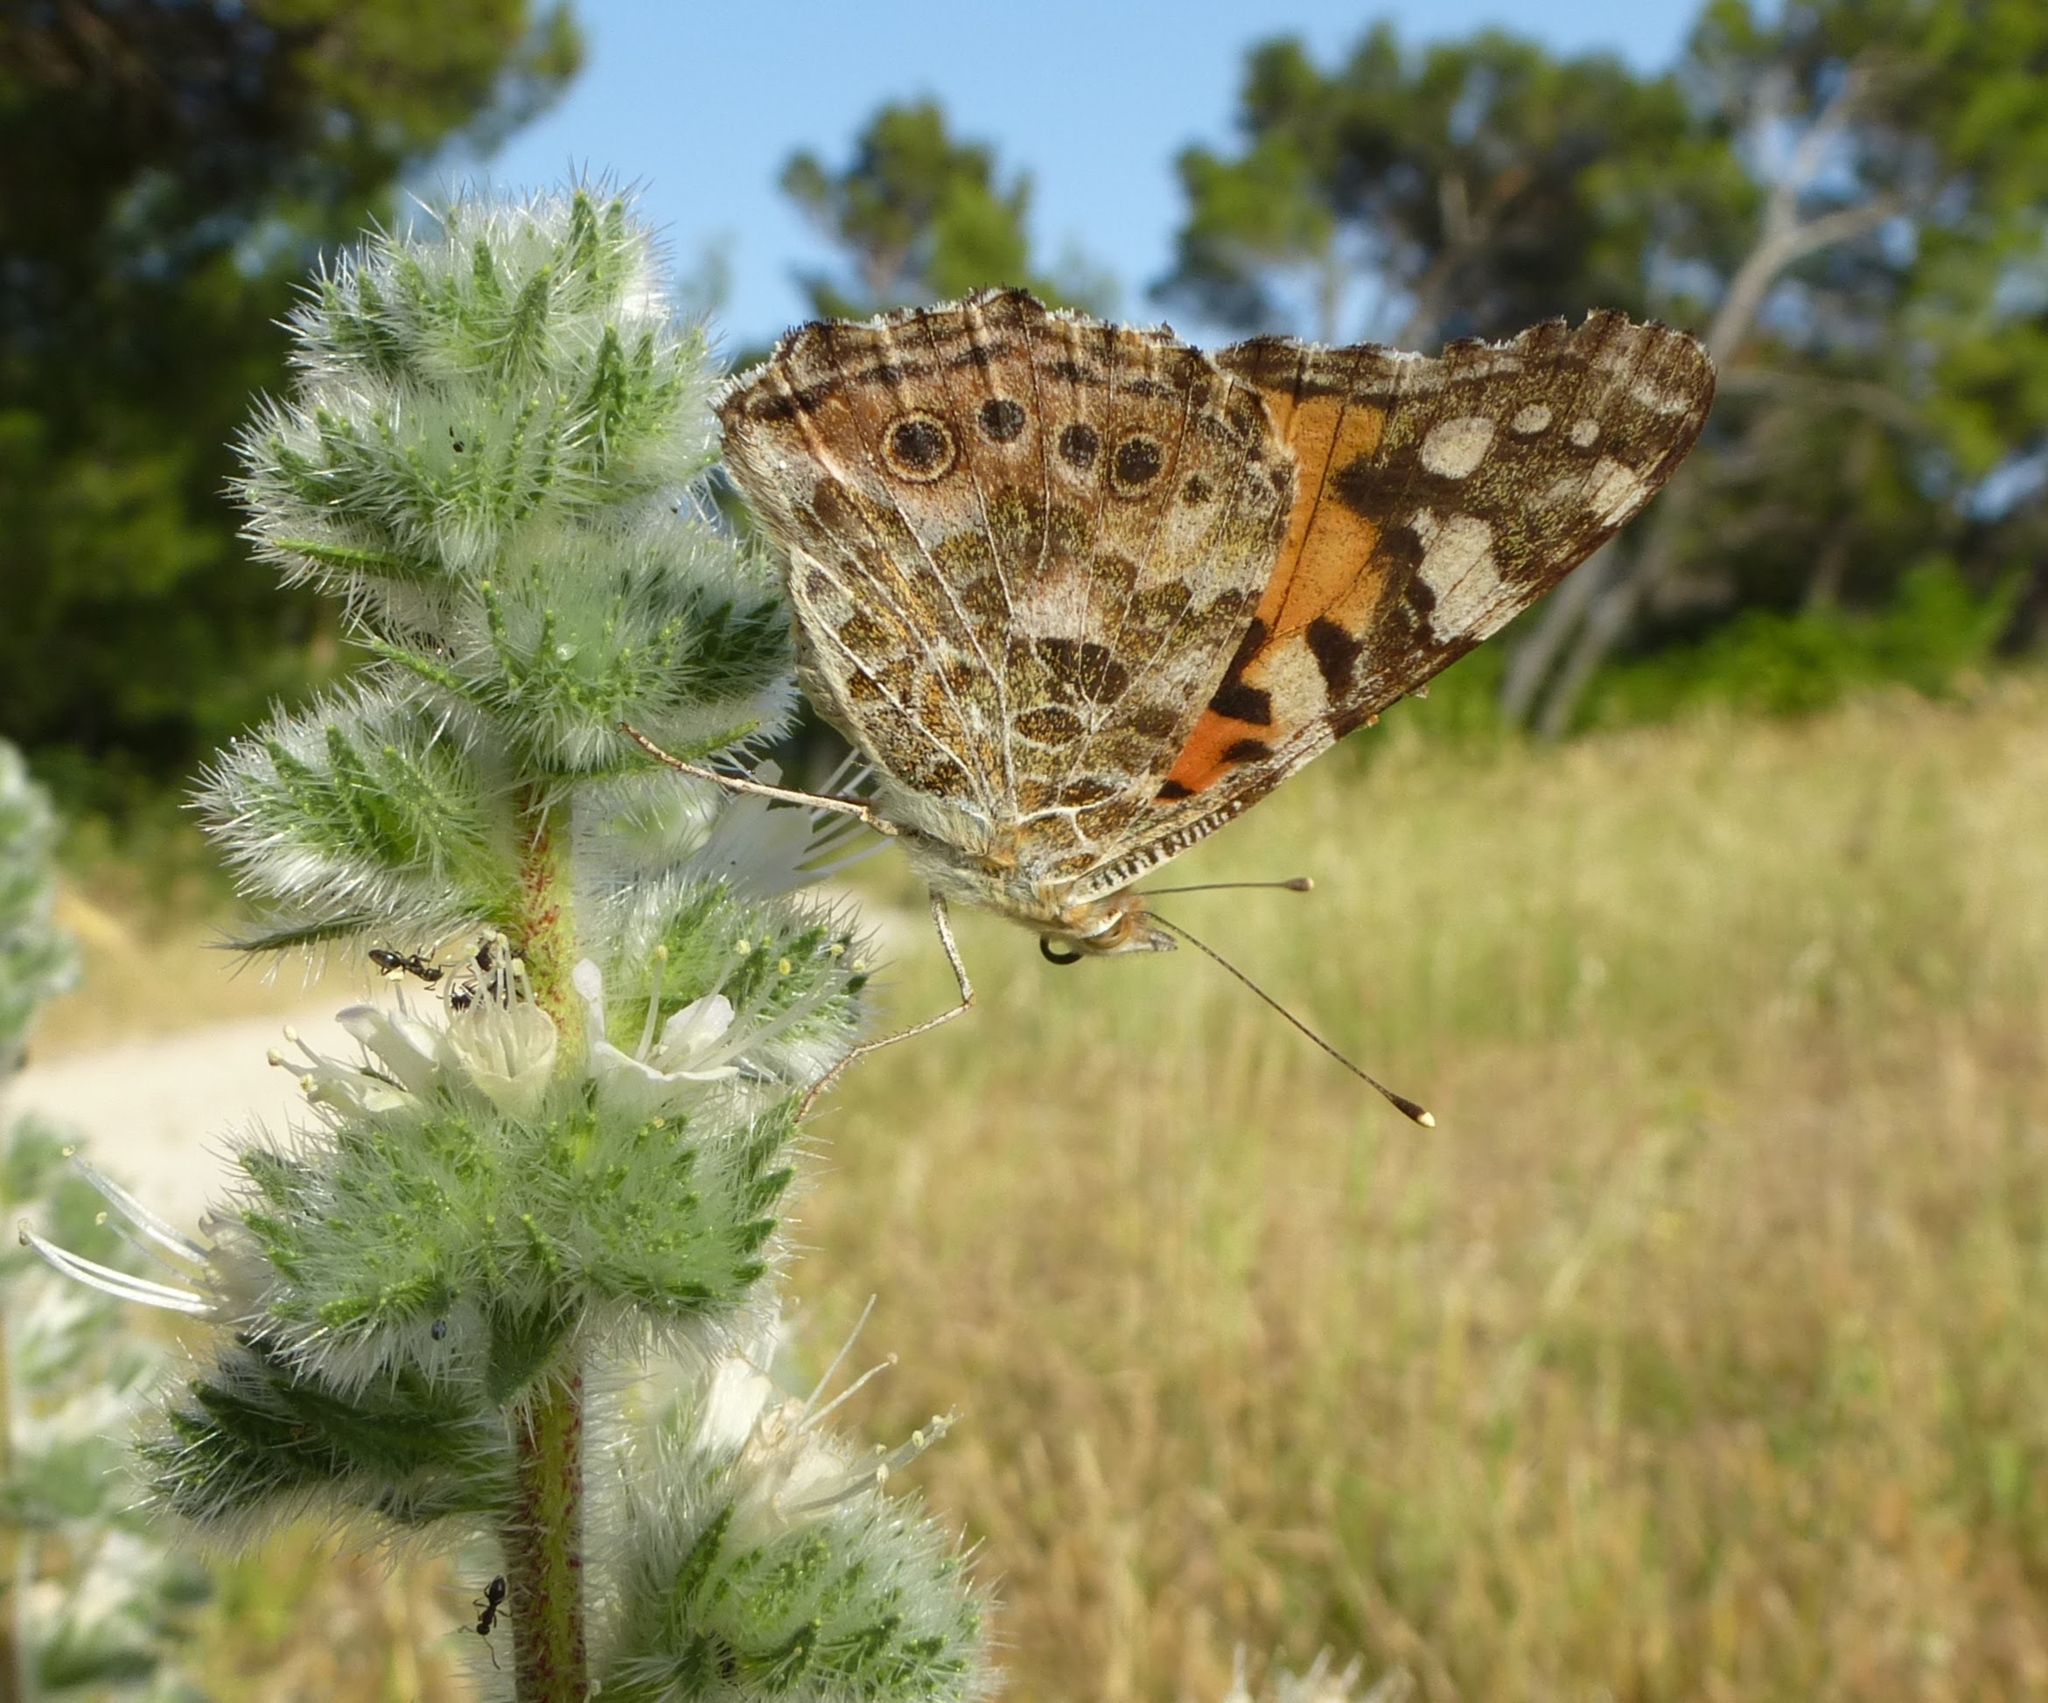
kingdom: Animalia
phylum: Arthropoda
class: Insecta
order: Lepidoptera
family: Nymphalidae
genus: Vanessa
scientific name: Vanessa cardui
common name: Painted lady
